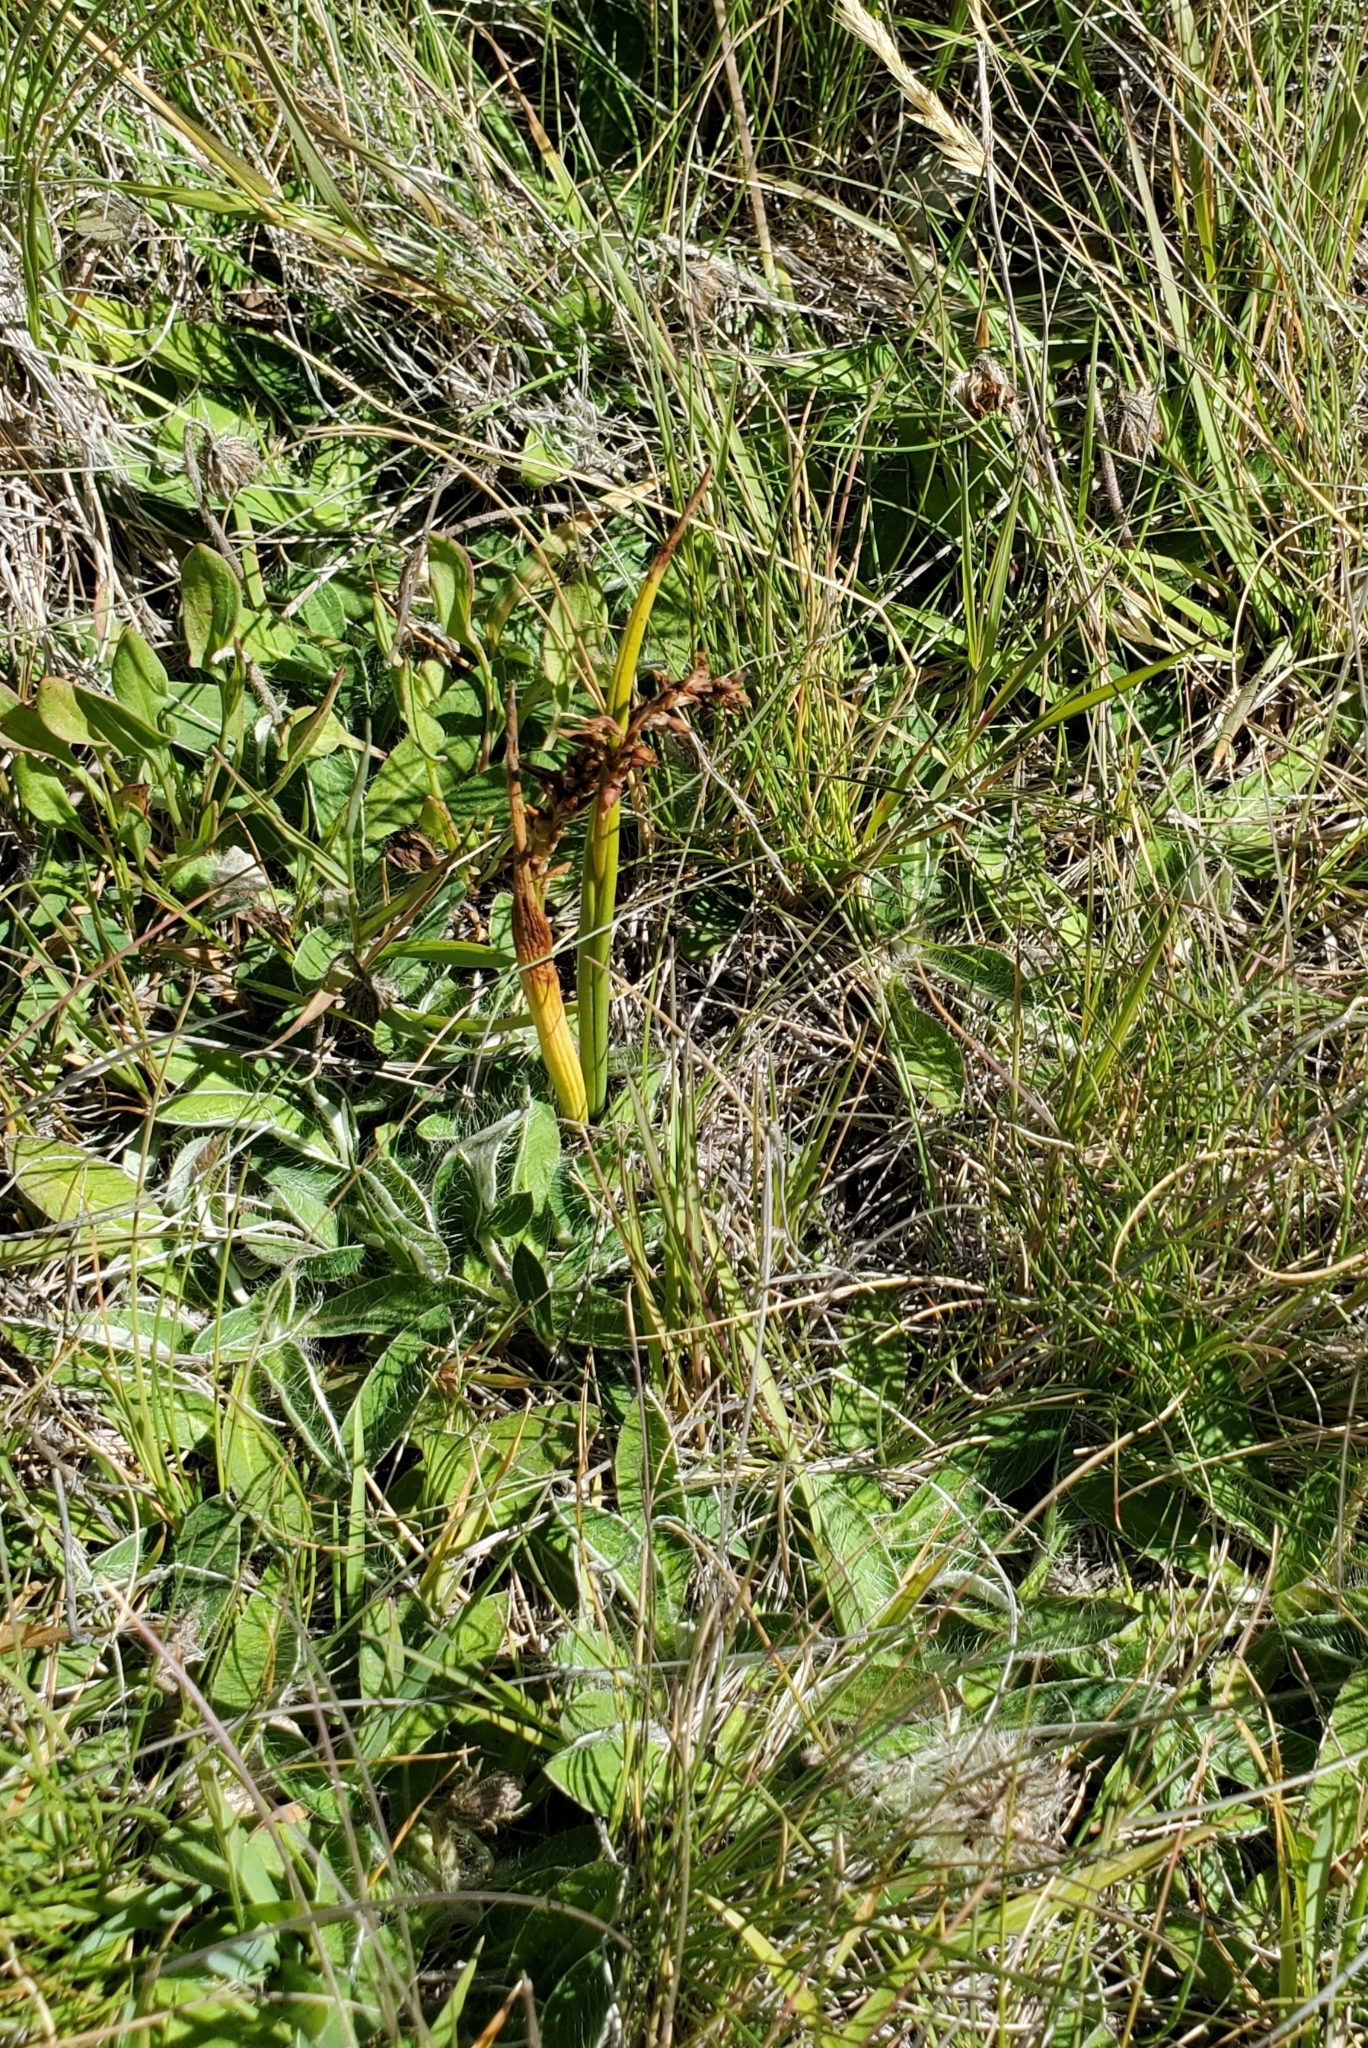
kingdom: Plantae
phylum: Tracheophyta
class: Liliopsida
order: Asparagales
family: Orchidaceae
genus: Prasophyllum
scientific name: Prasophyllum colensoi
